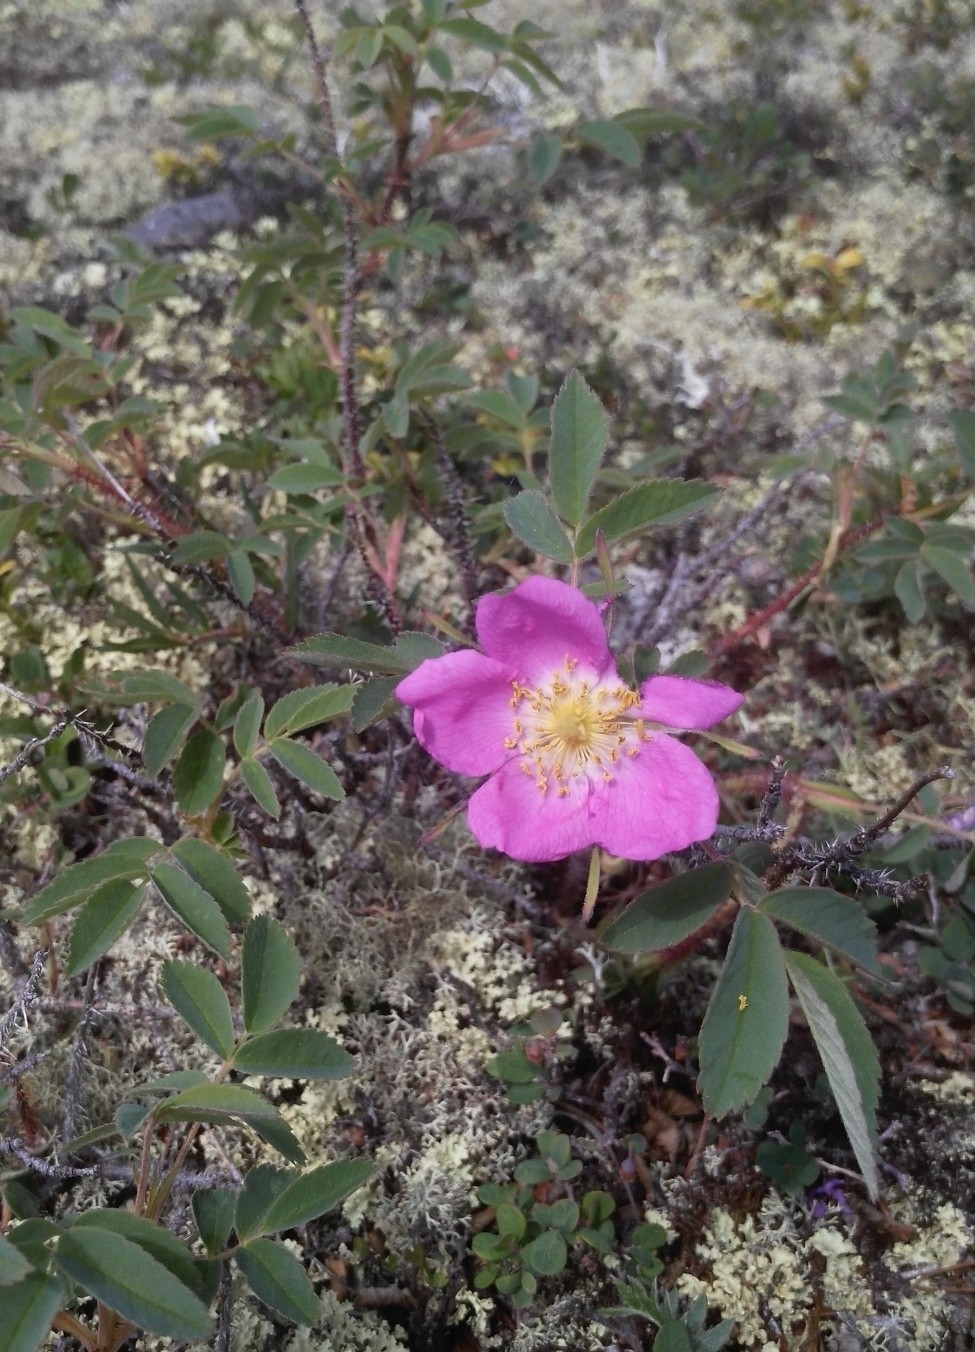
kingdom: Plantae
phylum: Tracheophyta
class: Magnoliopsida
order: Rosales
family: Rosaceae
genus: Rosa
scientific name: Rosa acicularis
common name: Prickly rose
